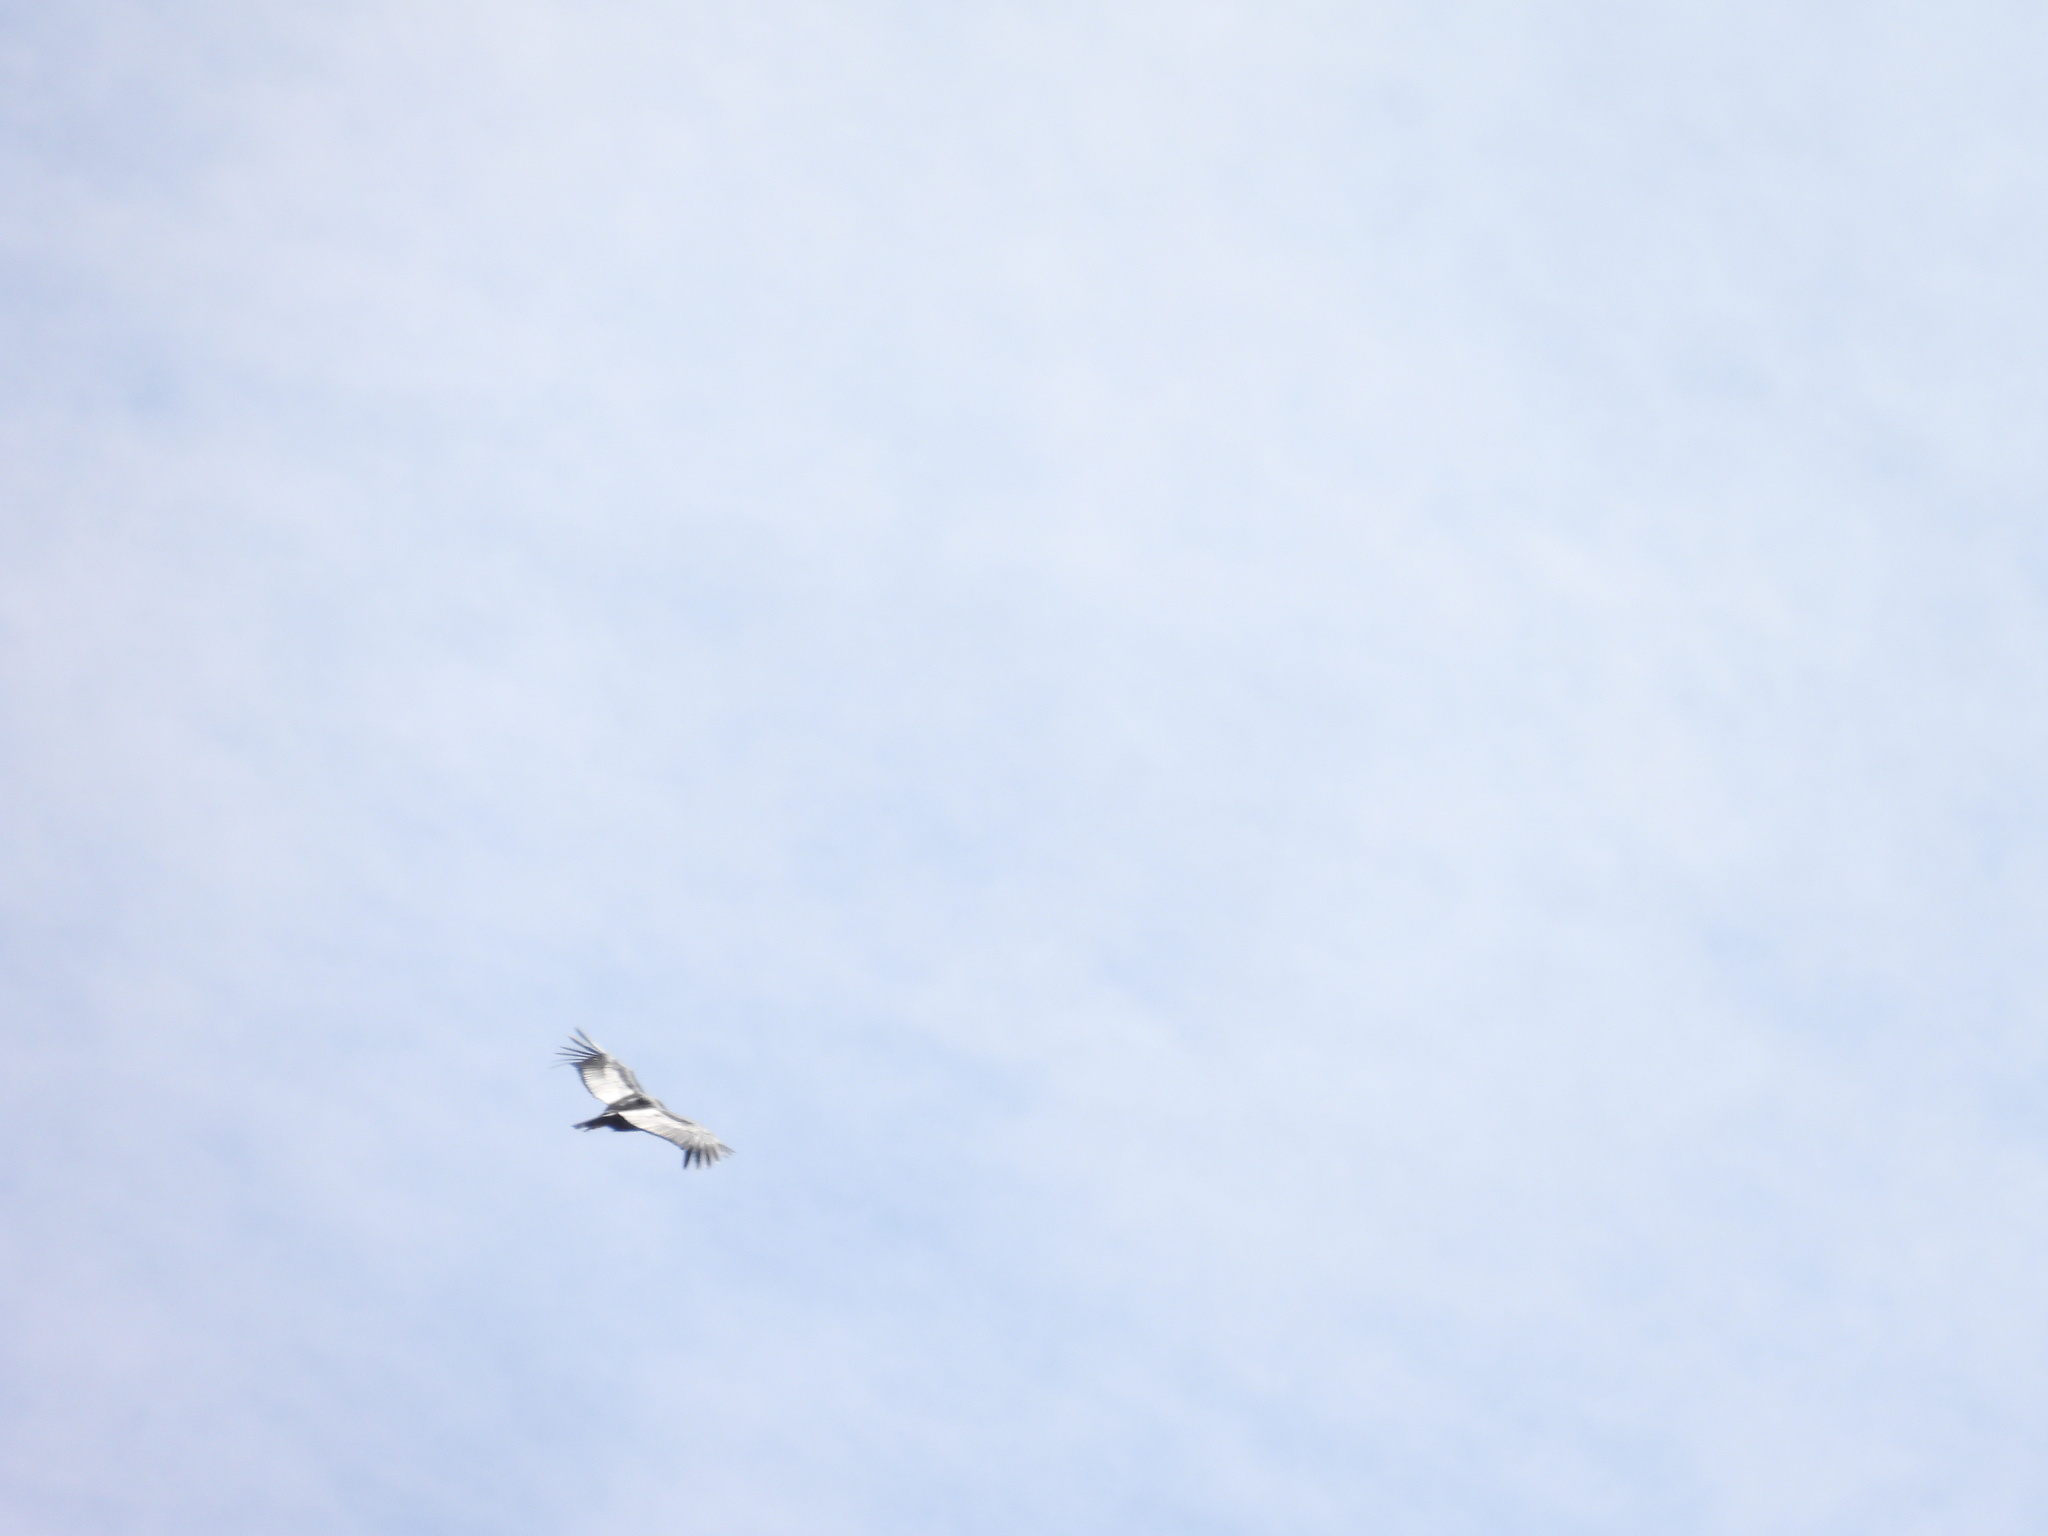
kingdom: Animalia
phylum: Chordata
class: Aves
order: Accipitriformes
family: Cathartidae
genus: Vultur
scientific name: Vultur gryphus
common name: Andean condor
